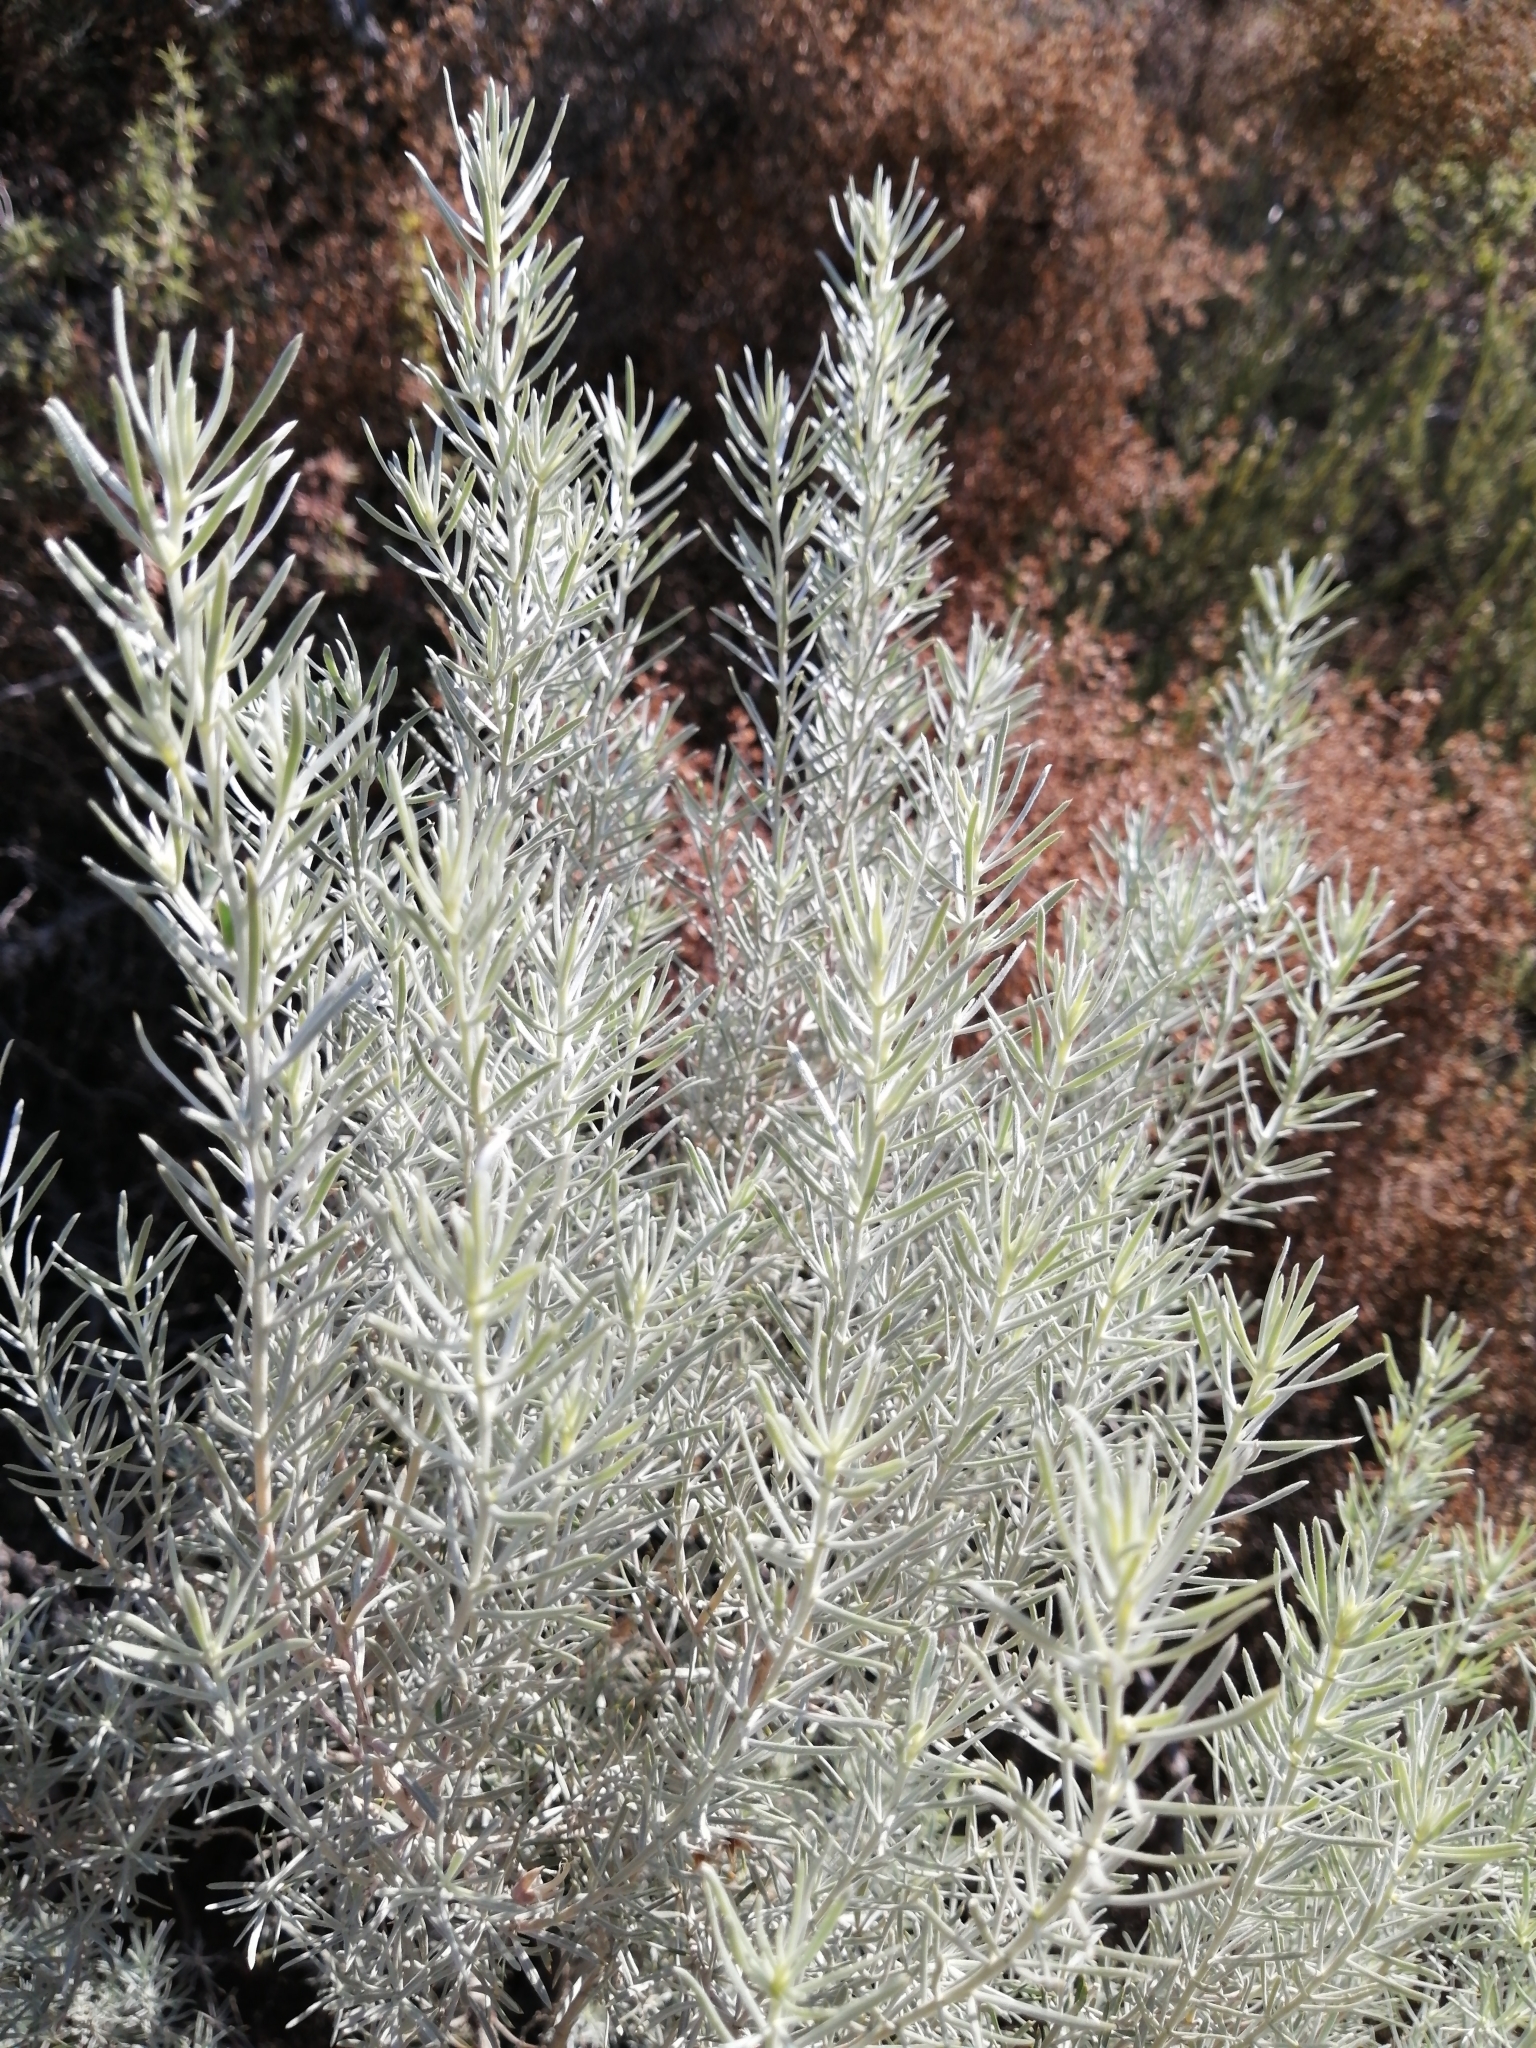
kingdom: Plantae
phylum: Tracheophyta
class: Magnoliopsida
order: Fabales
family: Fabaceae
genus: Aspalathus
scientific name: Aspalathus rugosa
